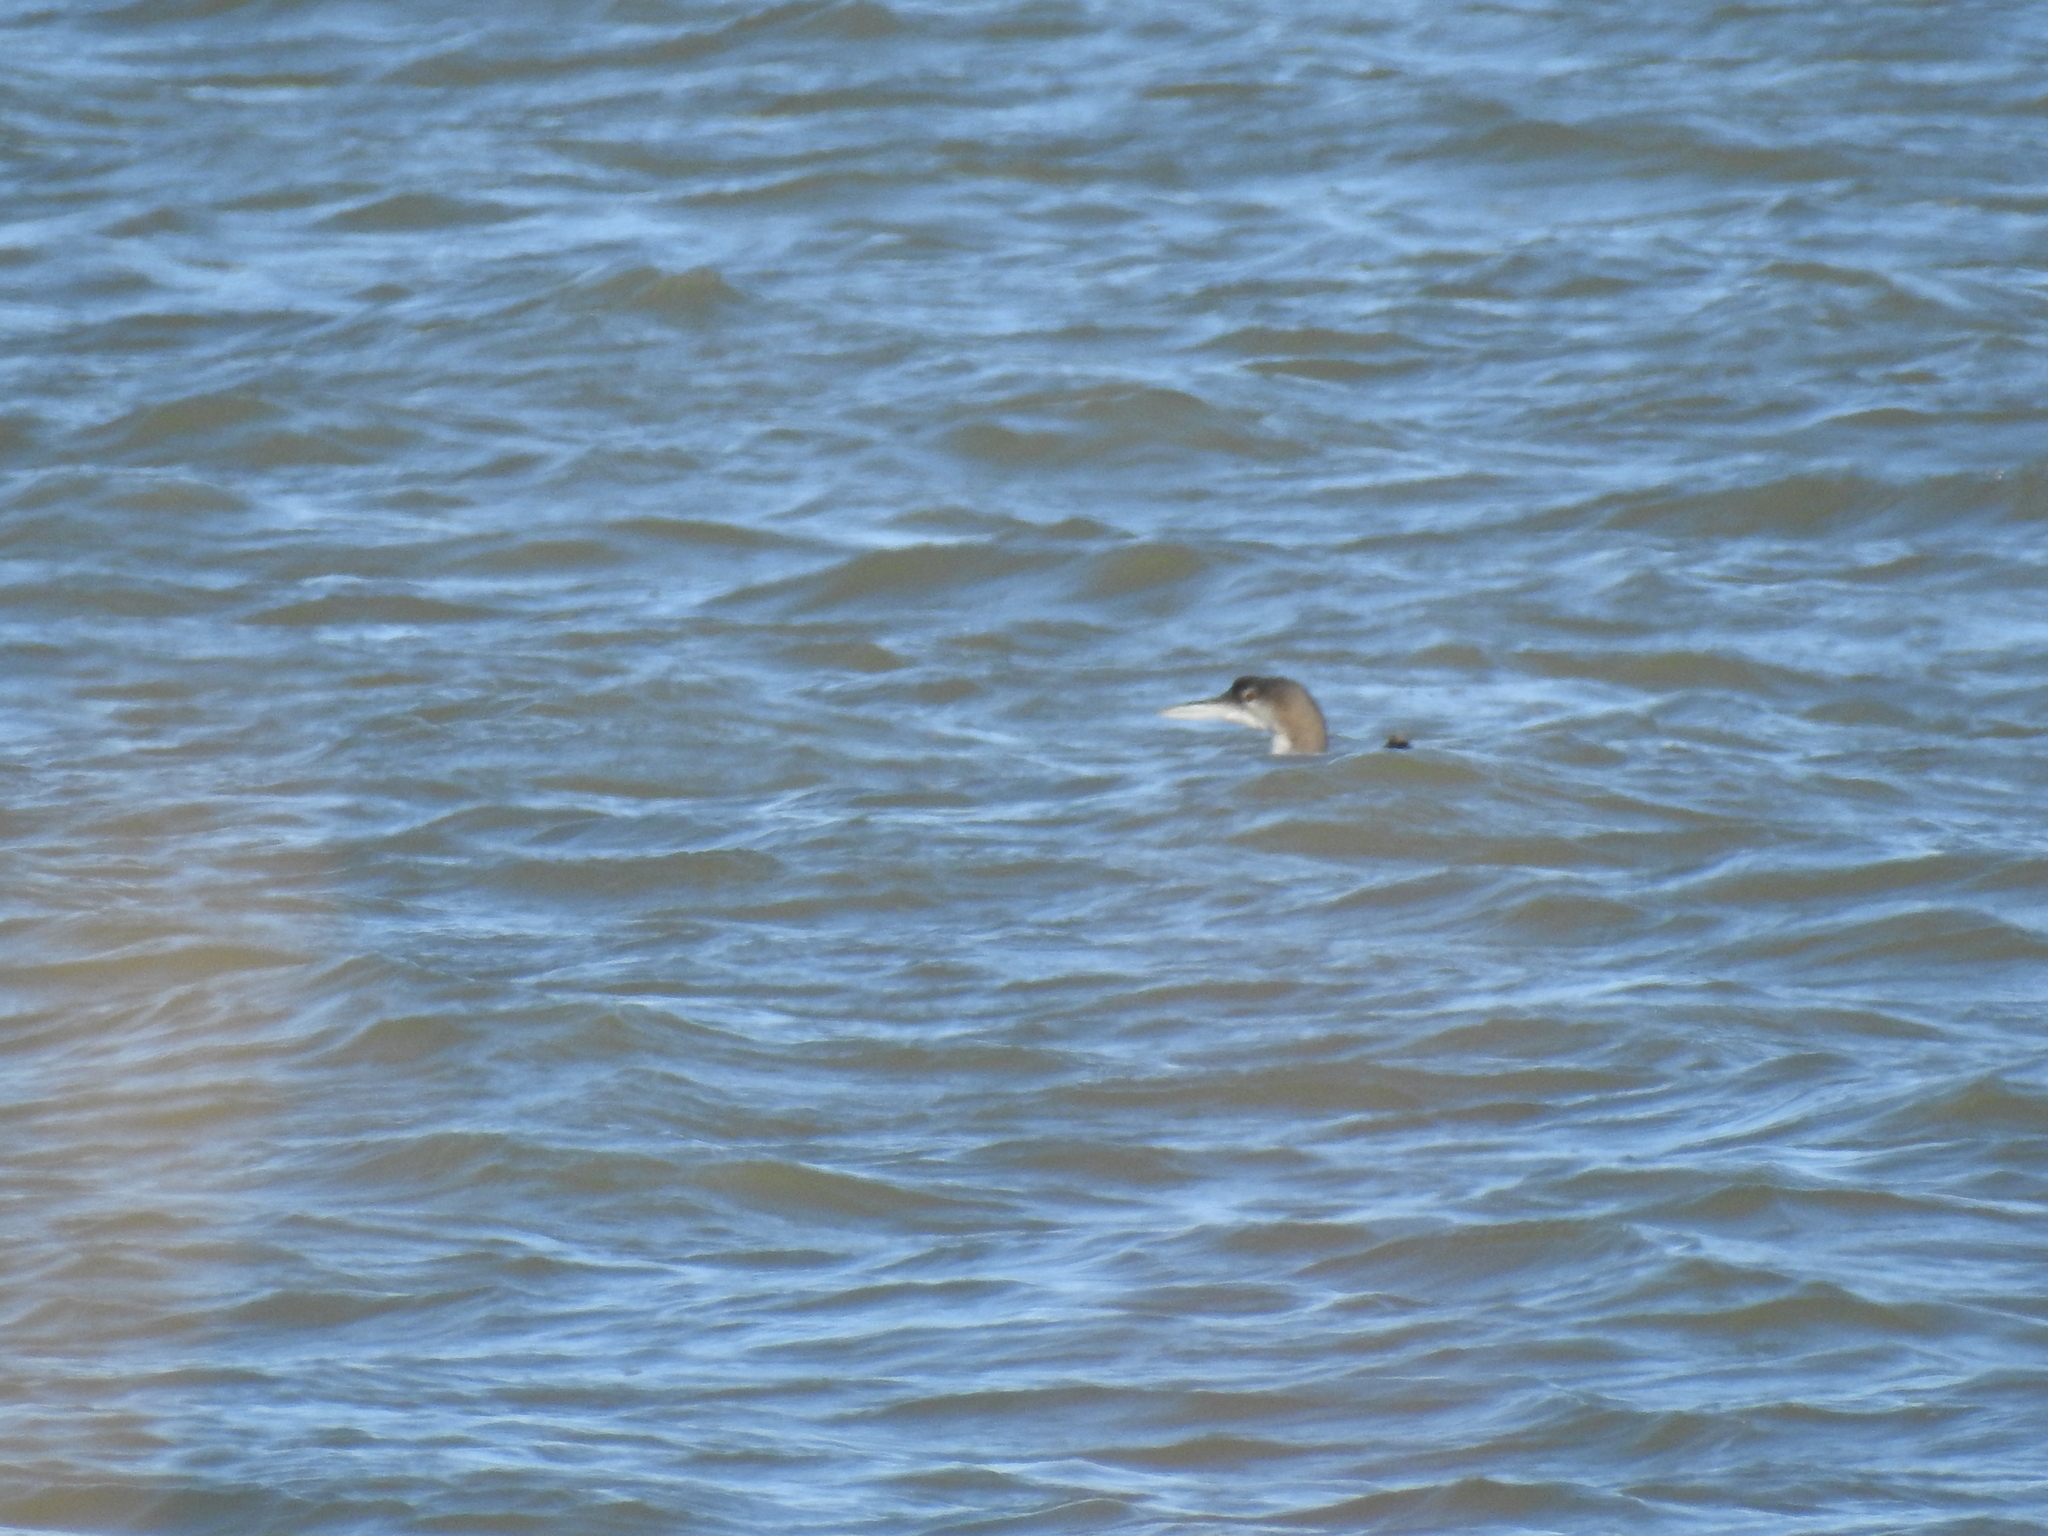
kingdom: Animalia
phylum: Chordata
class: Aves
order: Gaviiformes
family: Gaviidae
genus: Gavia
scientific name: Gavia immer
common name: Common loon
